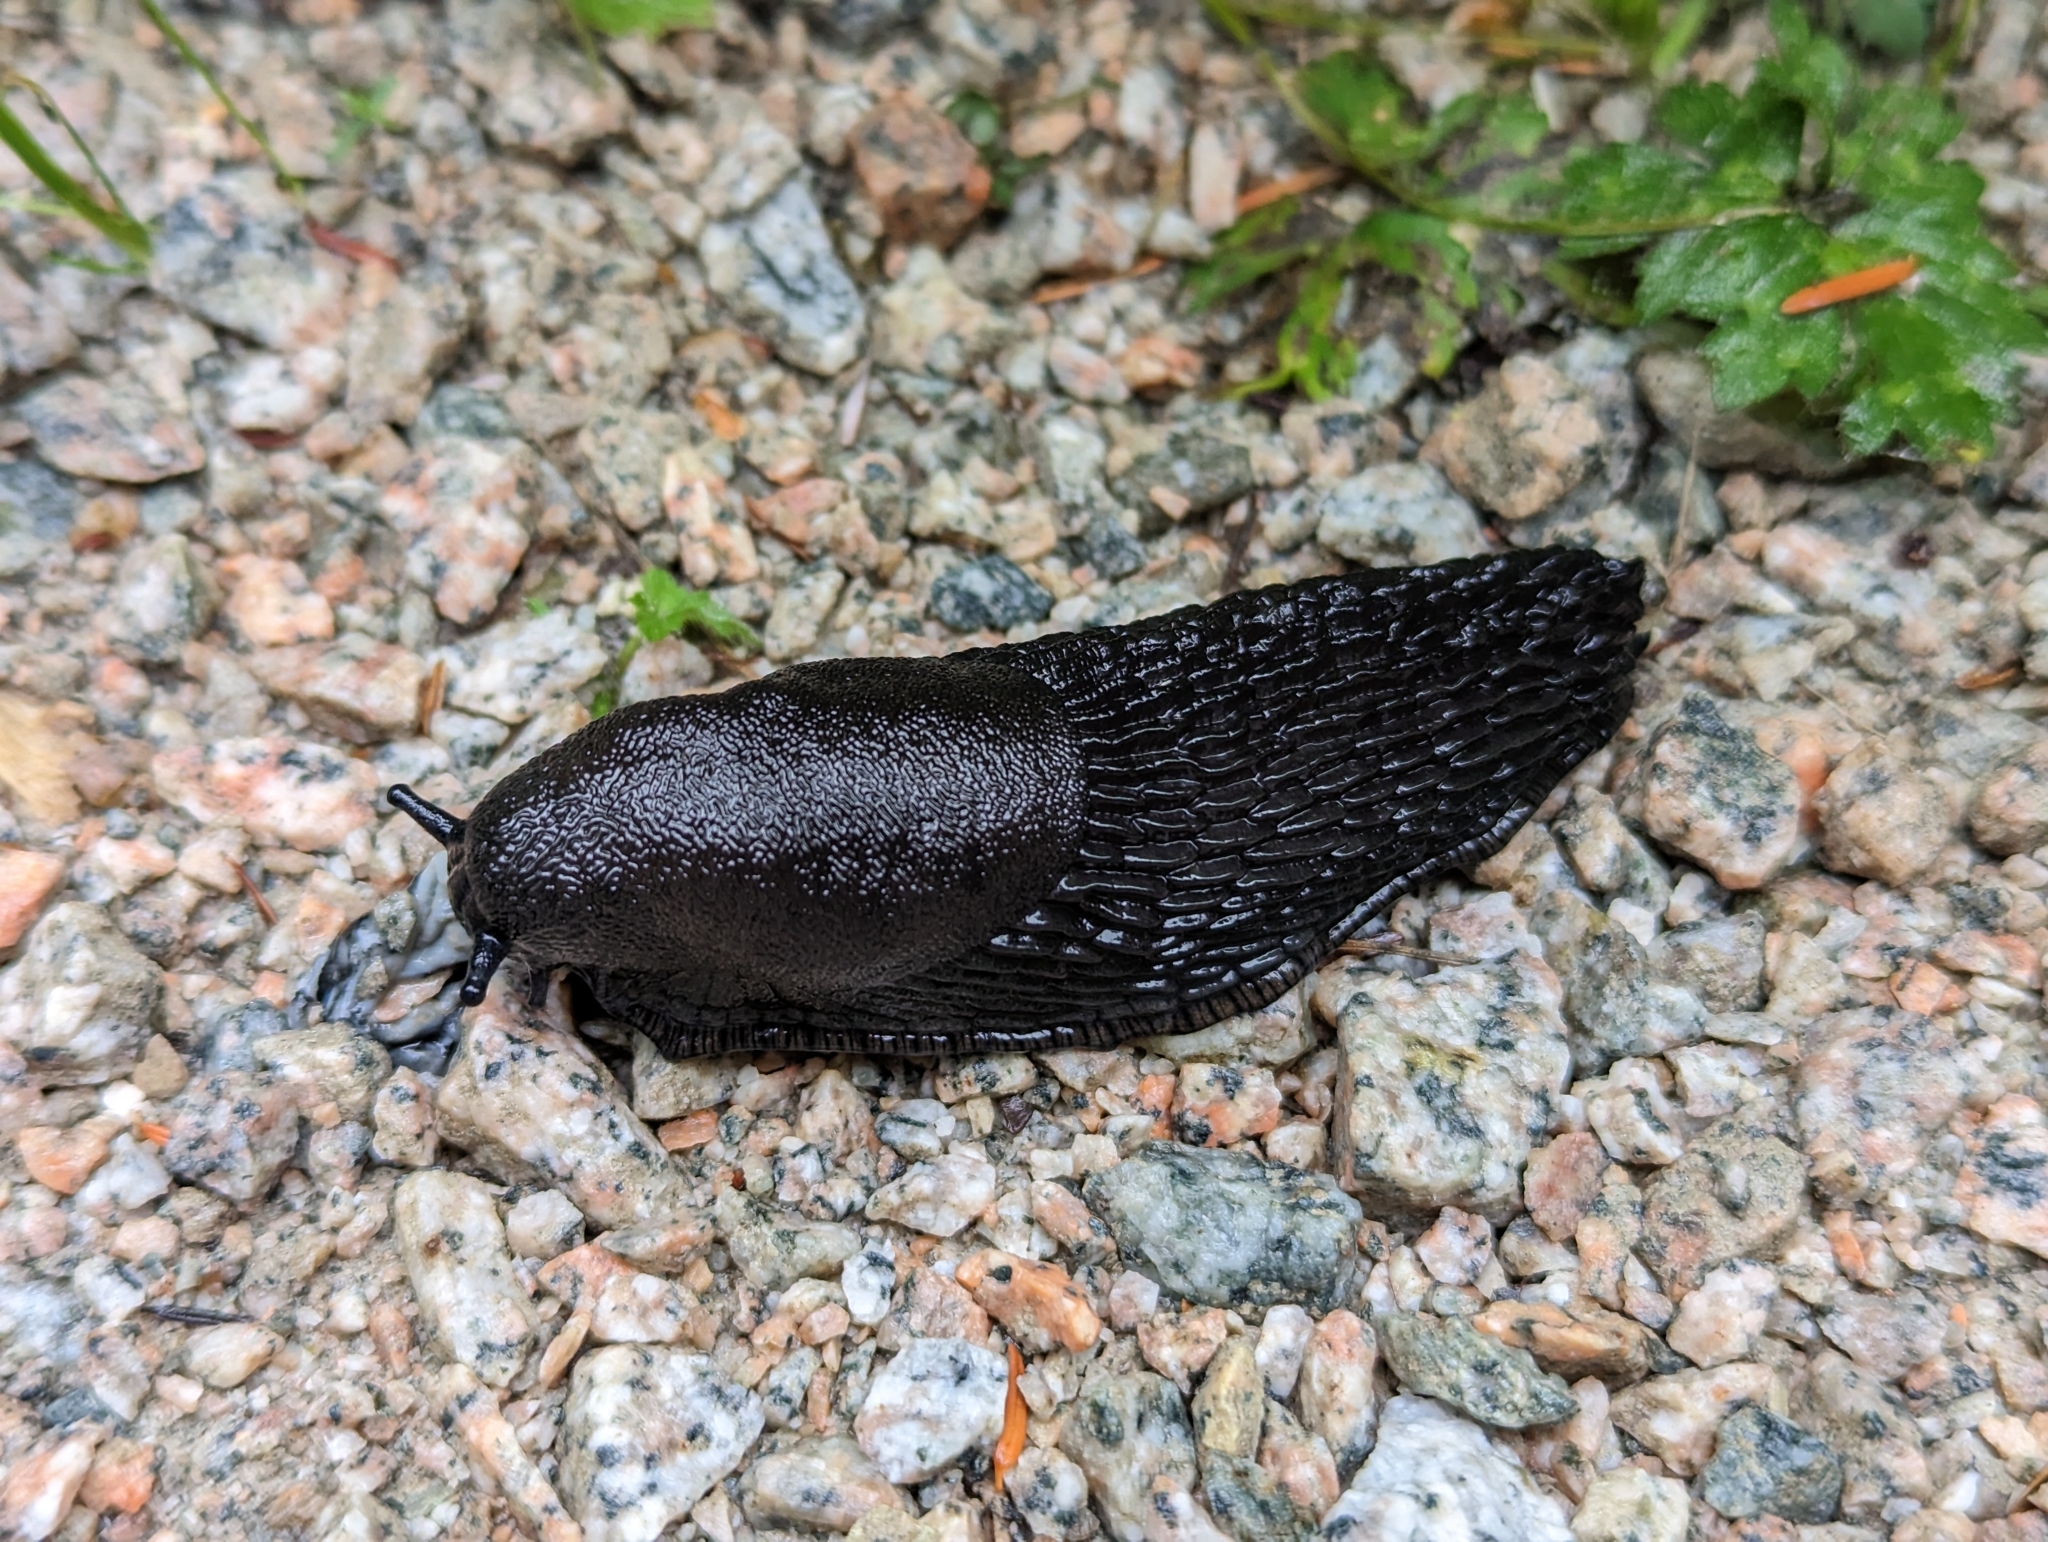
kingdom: Animalia
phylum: Mollusca
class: Gastropoda
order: Stylommatophora
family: Arionidae
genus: Arion
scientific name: Arion
